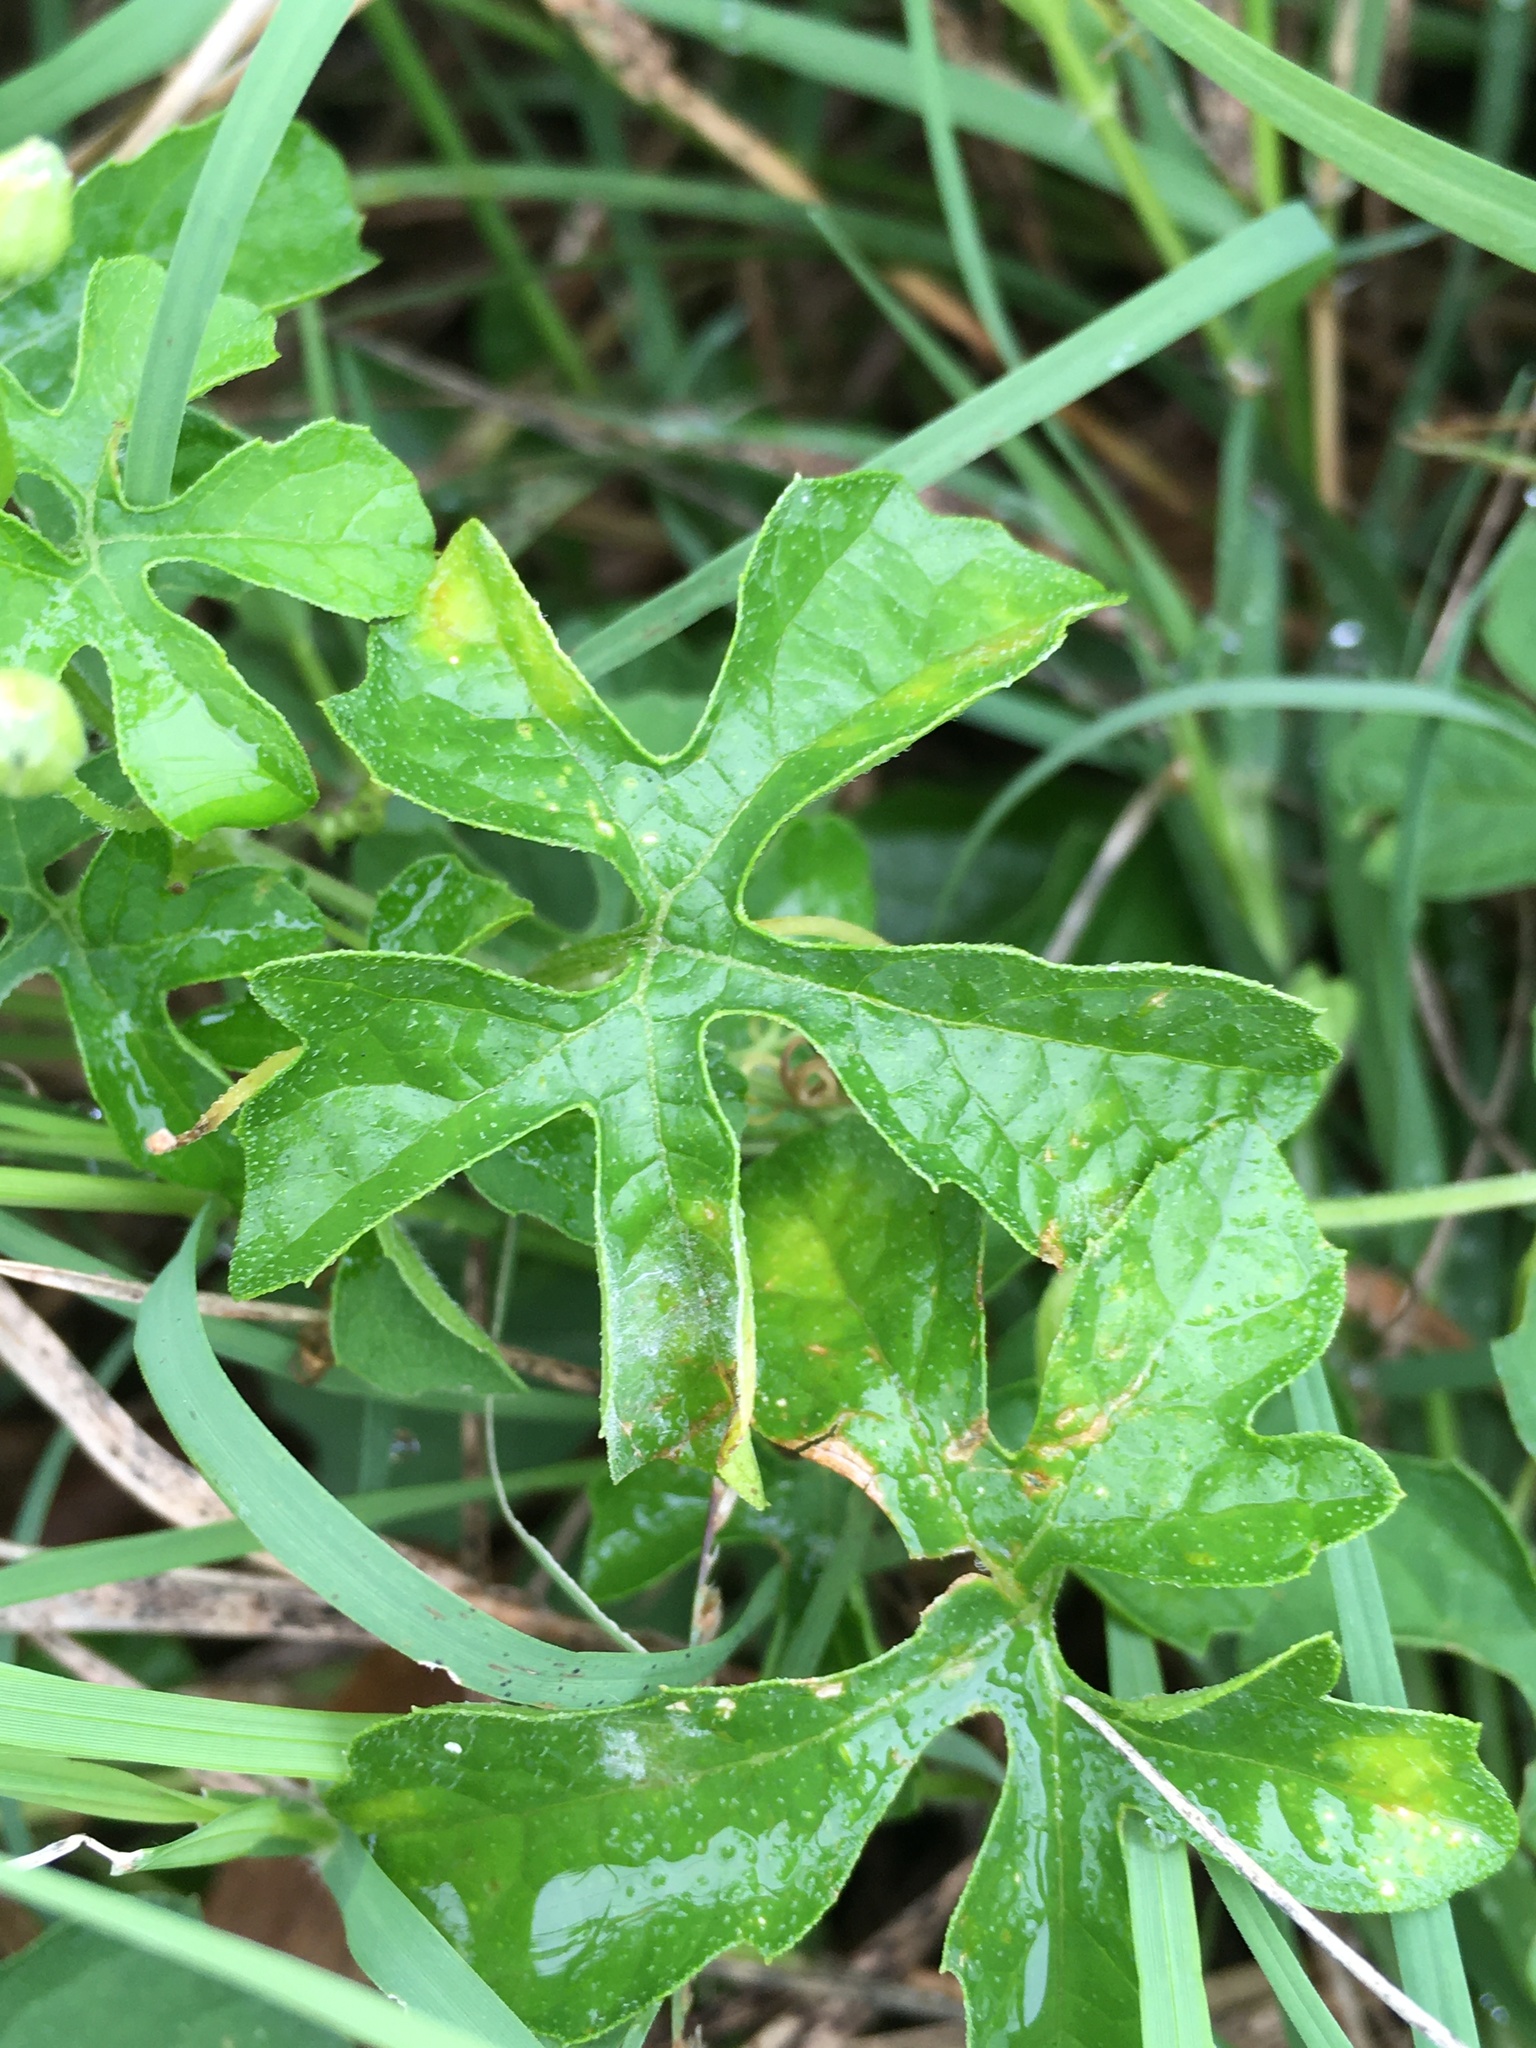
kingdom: Plantae
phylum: Tracheophyta
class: Magnoliopsida
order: Cucurbitales
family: Cucurbitaceae
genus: Momordica
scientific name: Momordica charantia
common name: Balsampear
